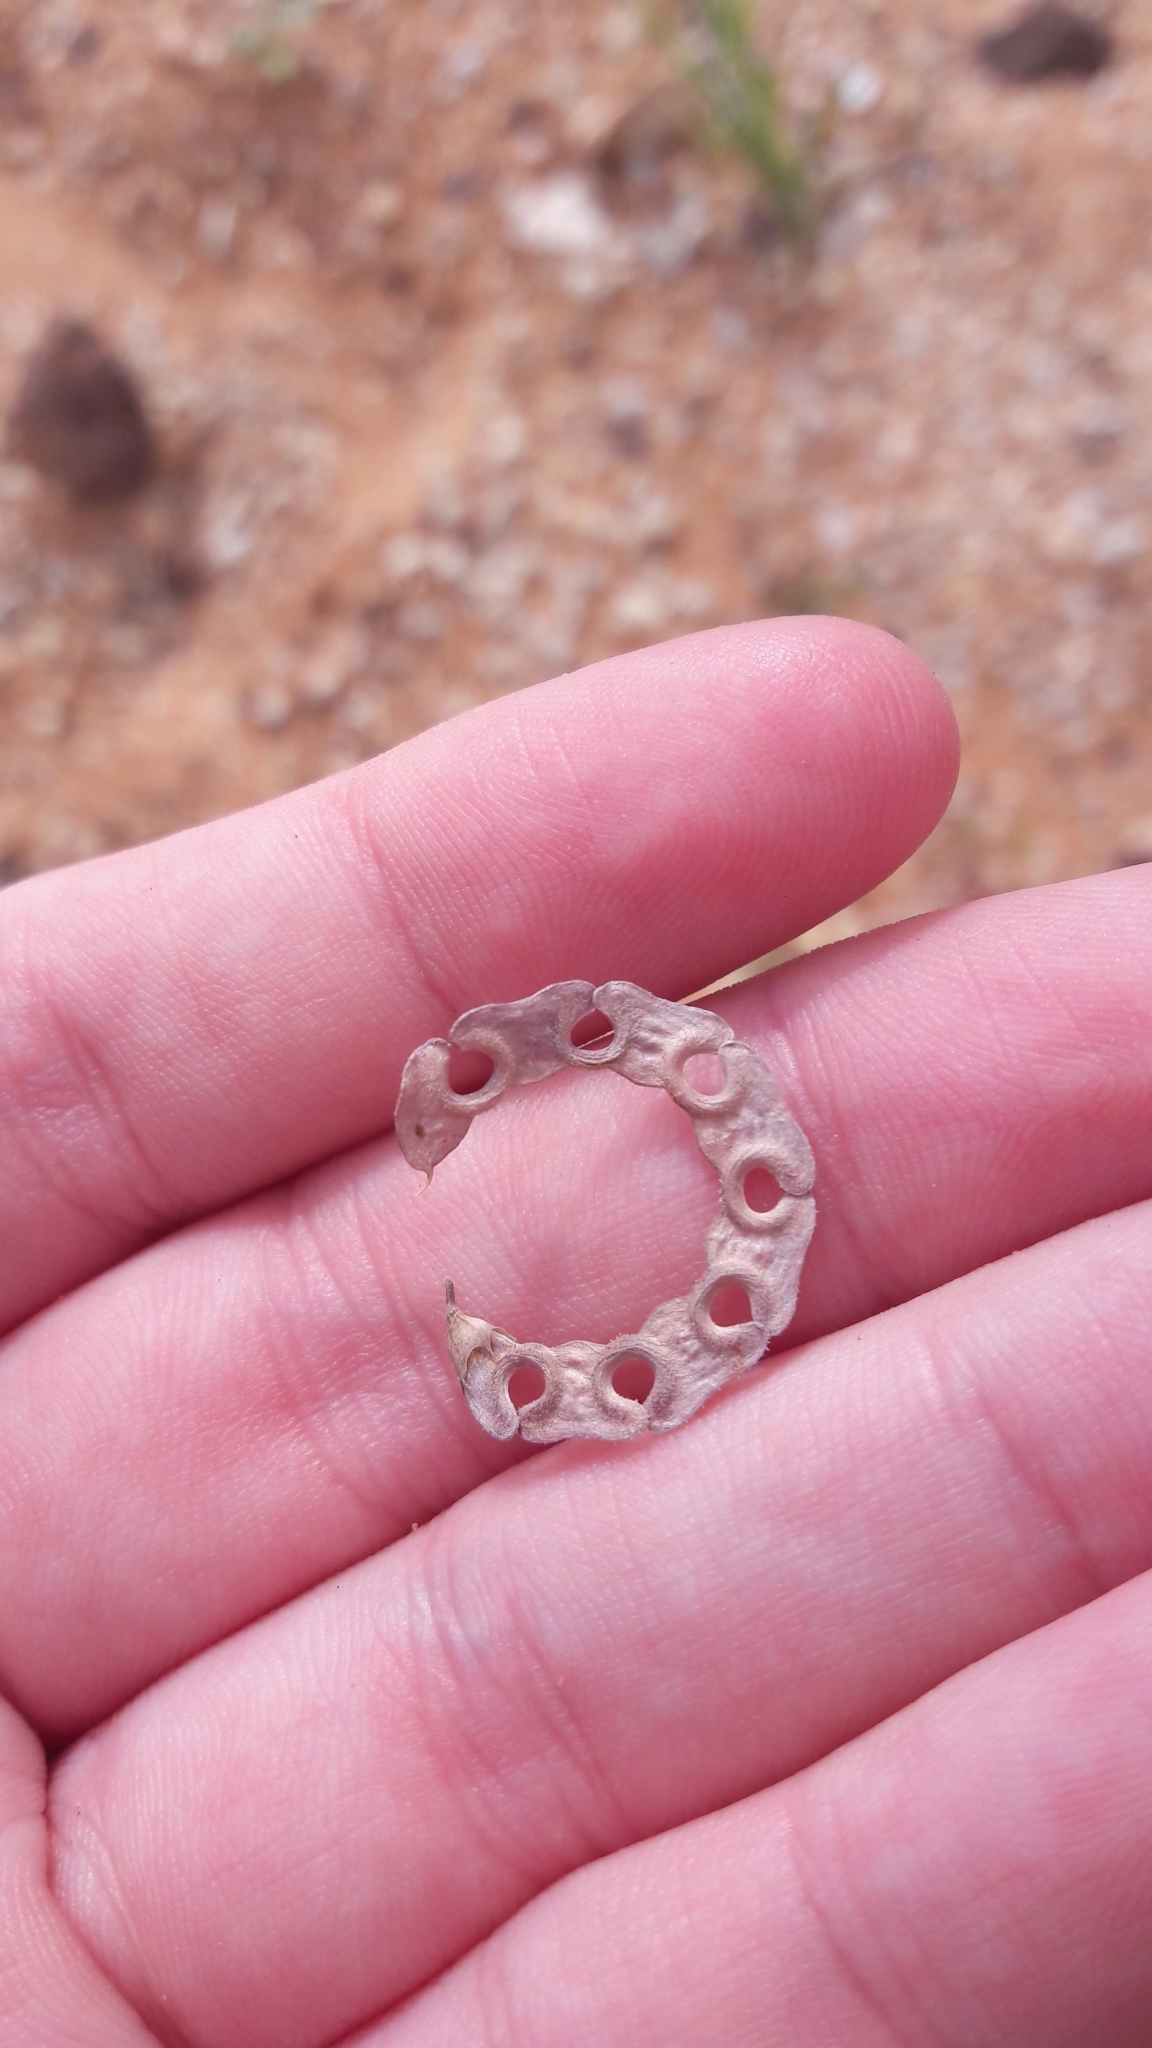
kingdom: Plantae
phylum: Tracheophyta
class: Magnoliopsida
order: Fabales
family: Fabaceae
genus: Hippocrepis
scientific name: Hippocrepis multisiliquosa
